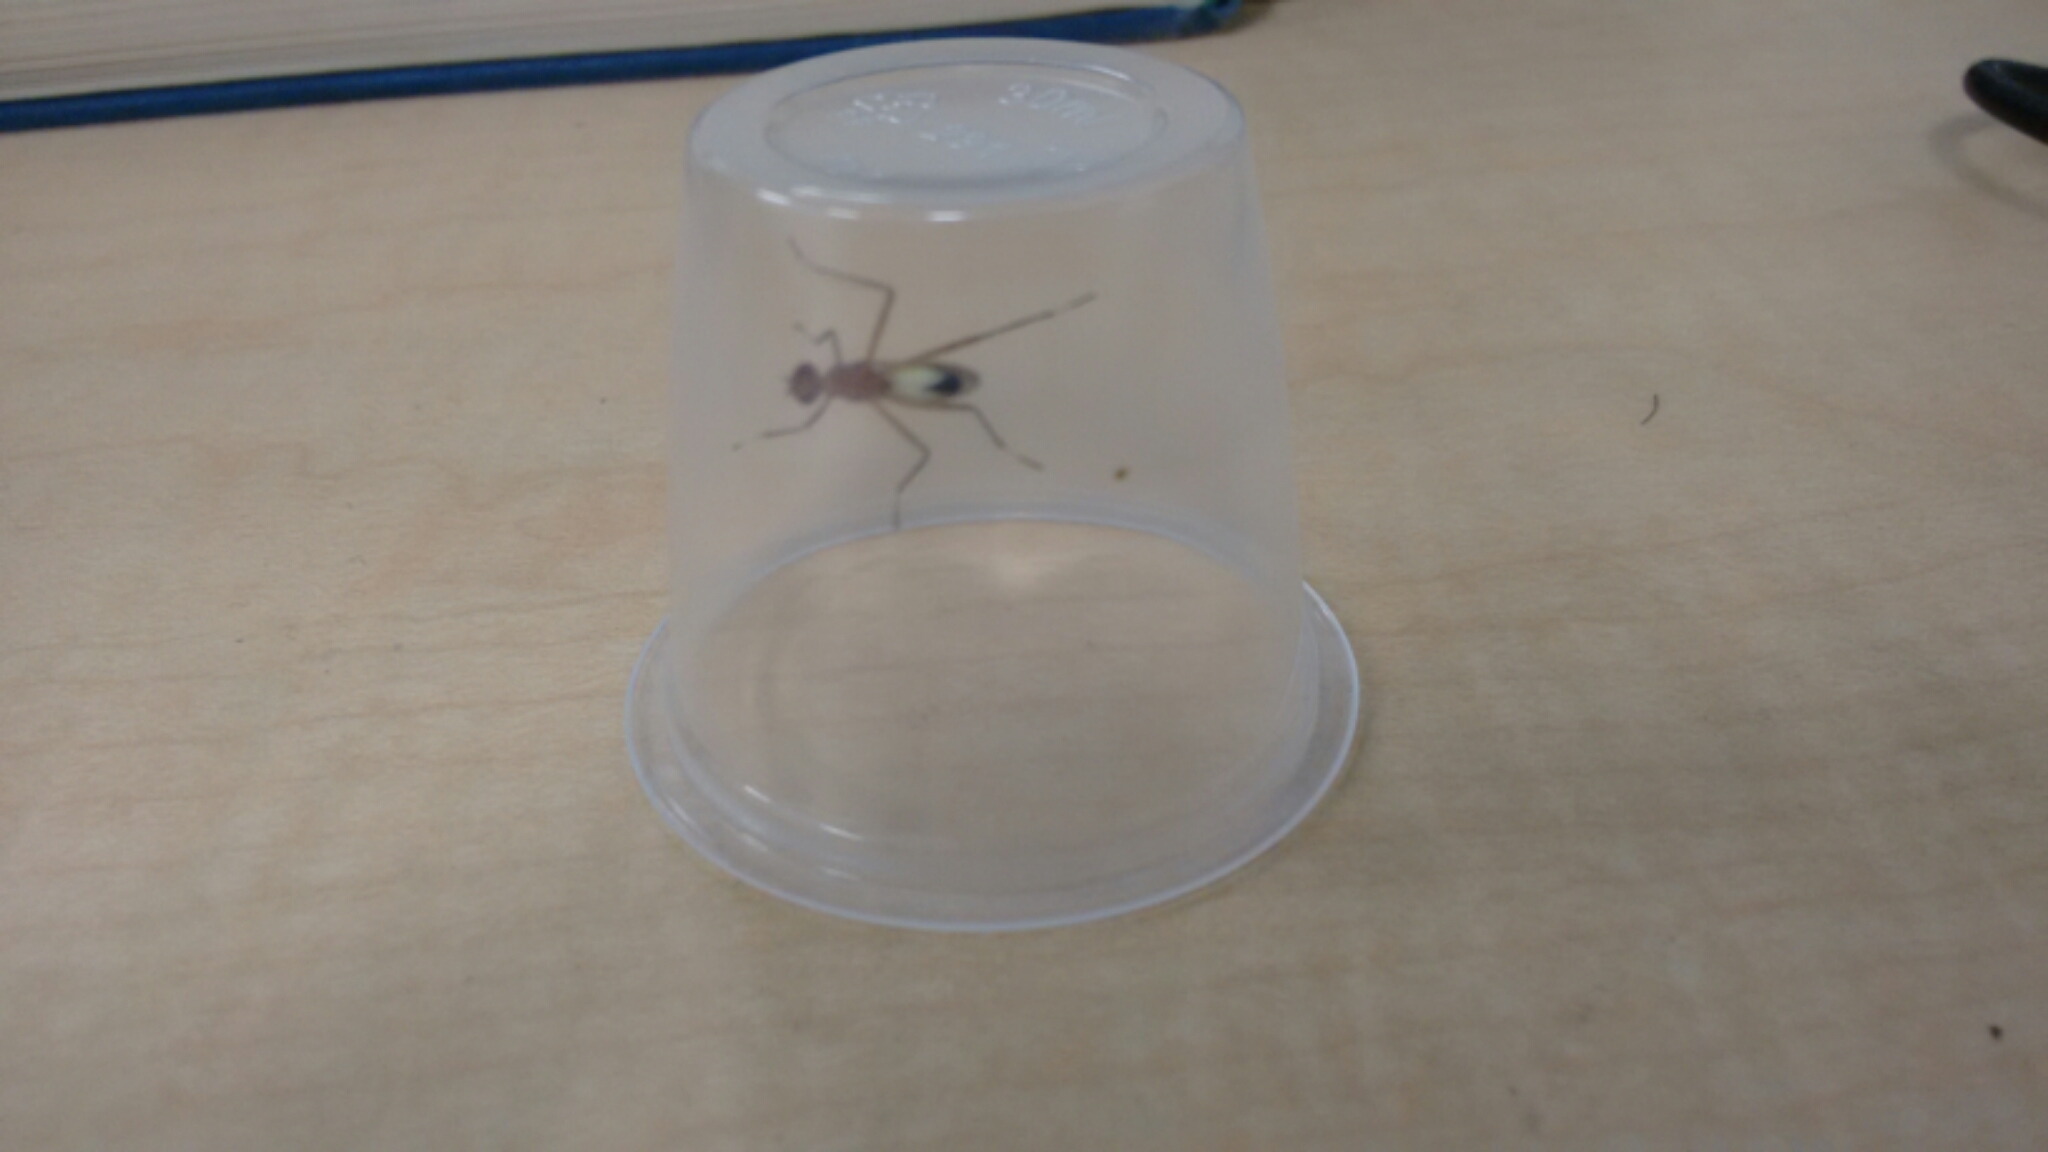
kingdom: Animalia
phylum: Arthropoda
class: Insecta
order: Diptera
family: Micropezidae
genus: Grallipeza
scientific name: Grallipeza nebulosa
